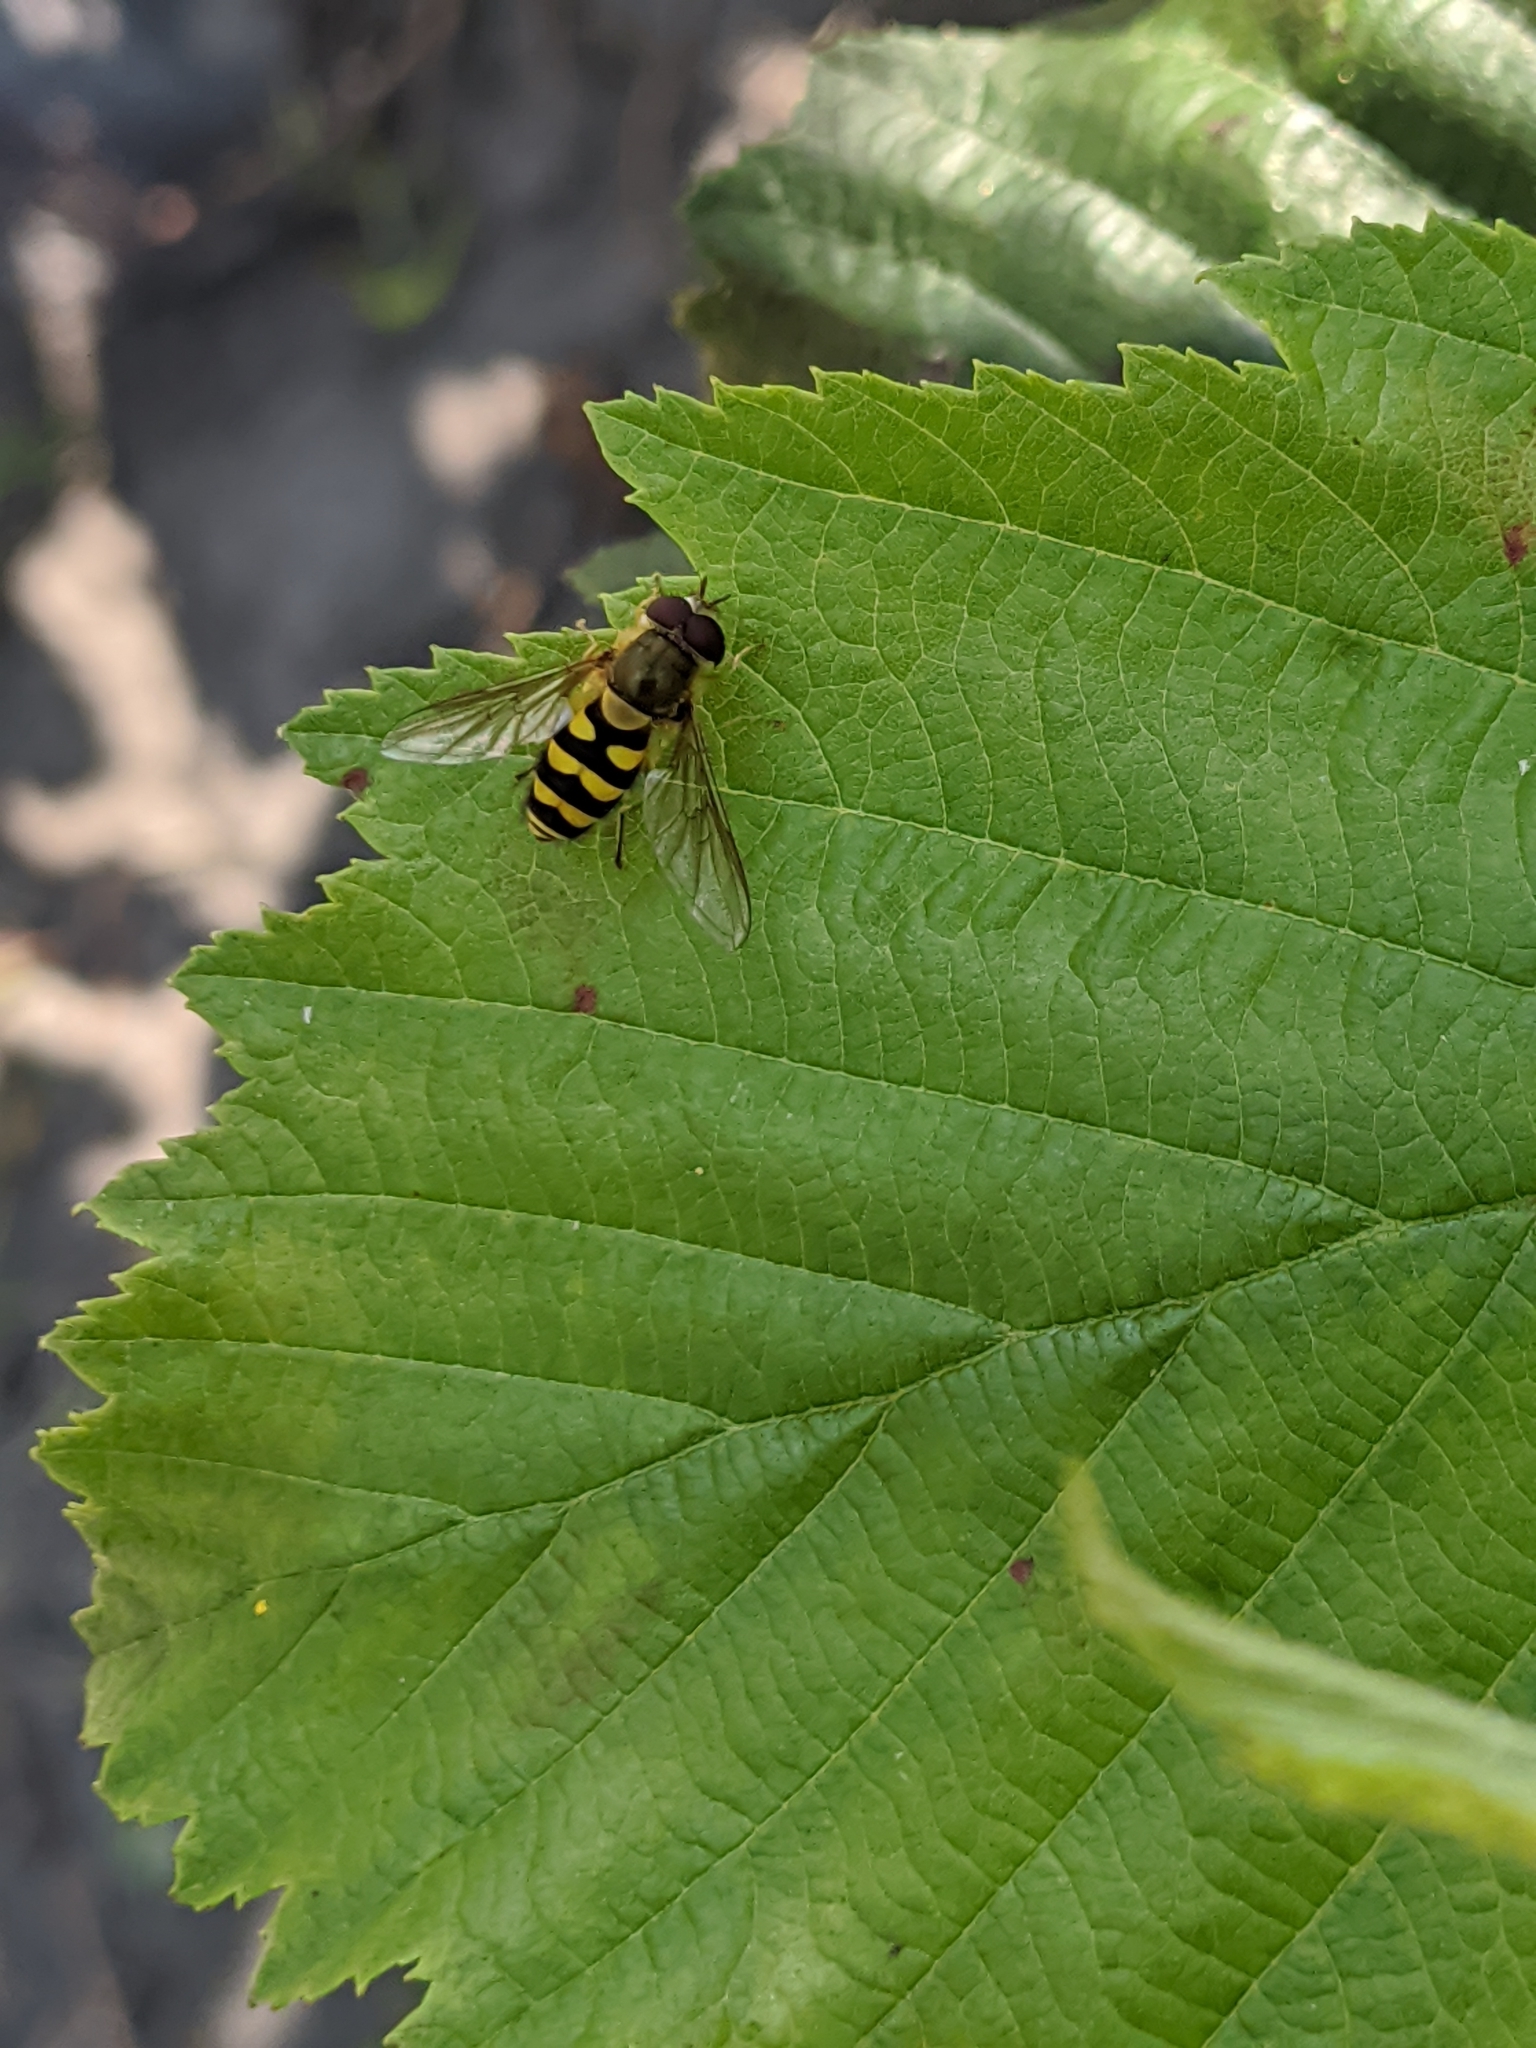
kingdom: Animalia
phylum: Arthropoda
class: Insecta
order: Diptera
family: Syrphidae
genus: Syrphus
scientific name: Syrphus
